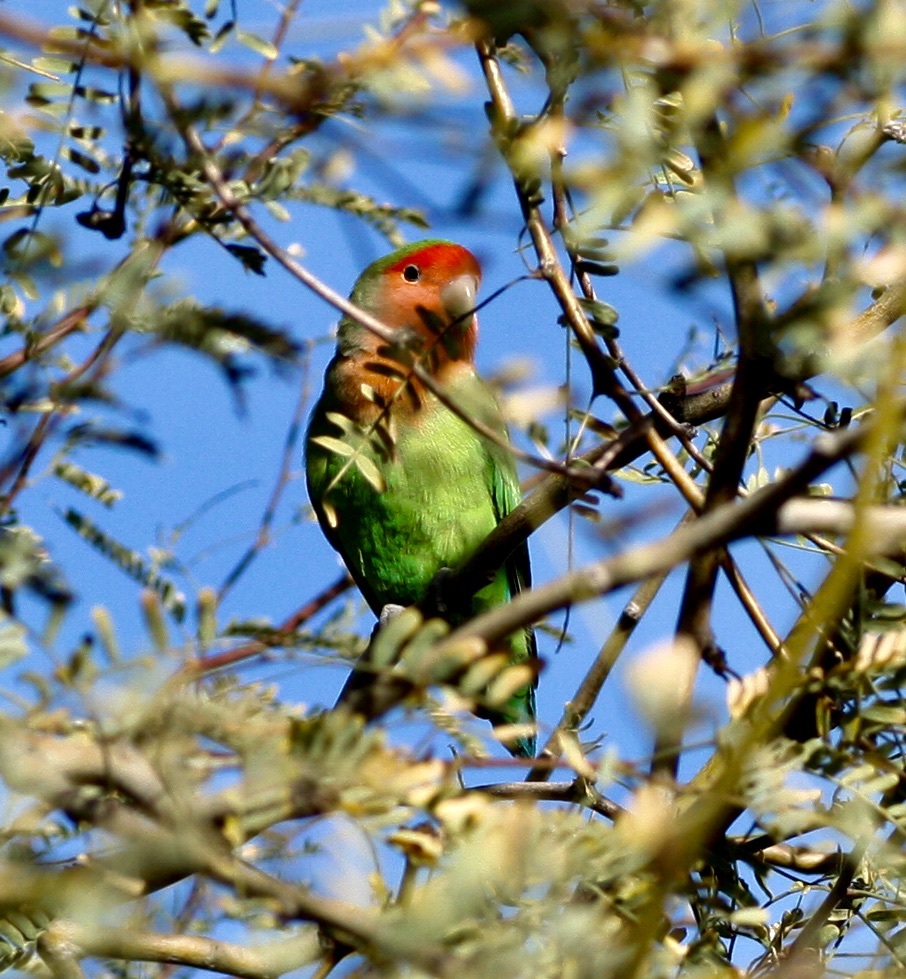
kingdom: Animalia
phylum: Chordata
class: Aves
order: Psittaciformes
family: Psittacidae
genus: Agapornis
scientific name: Agapornis roseicollis
